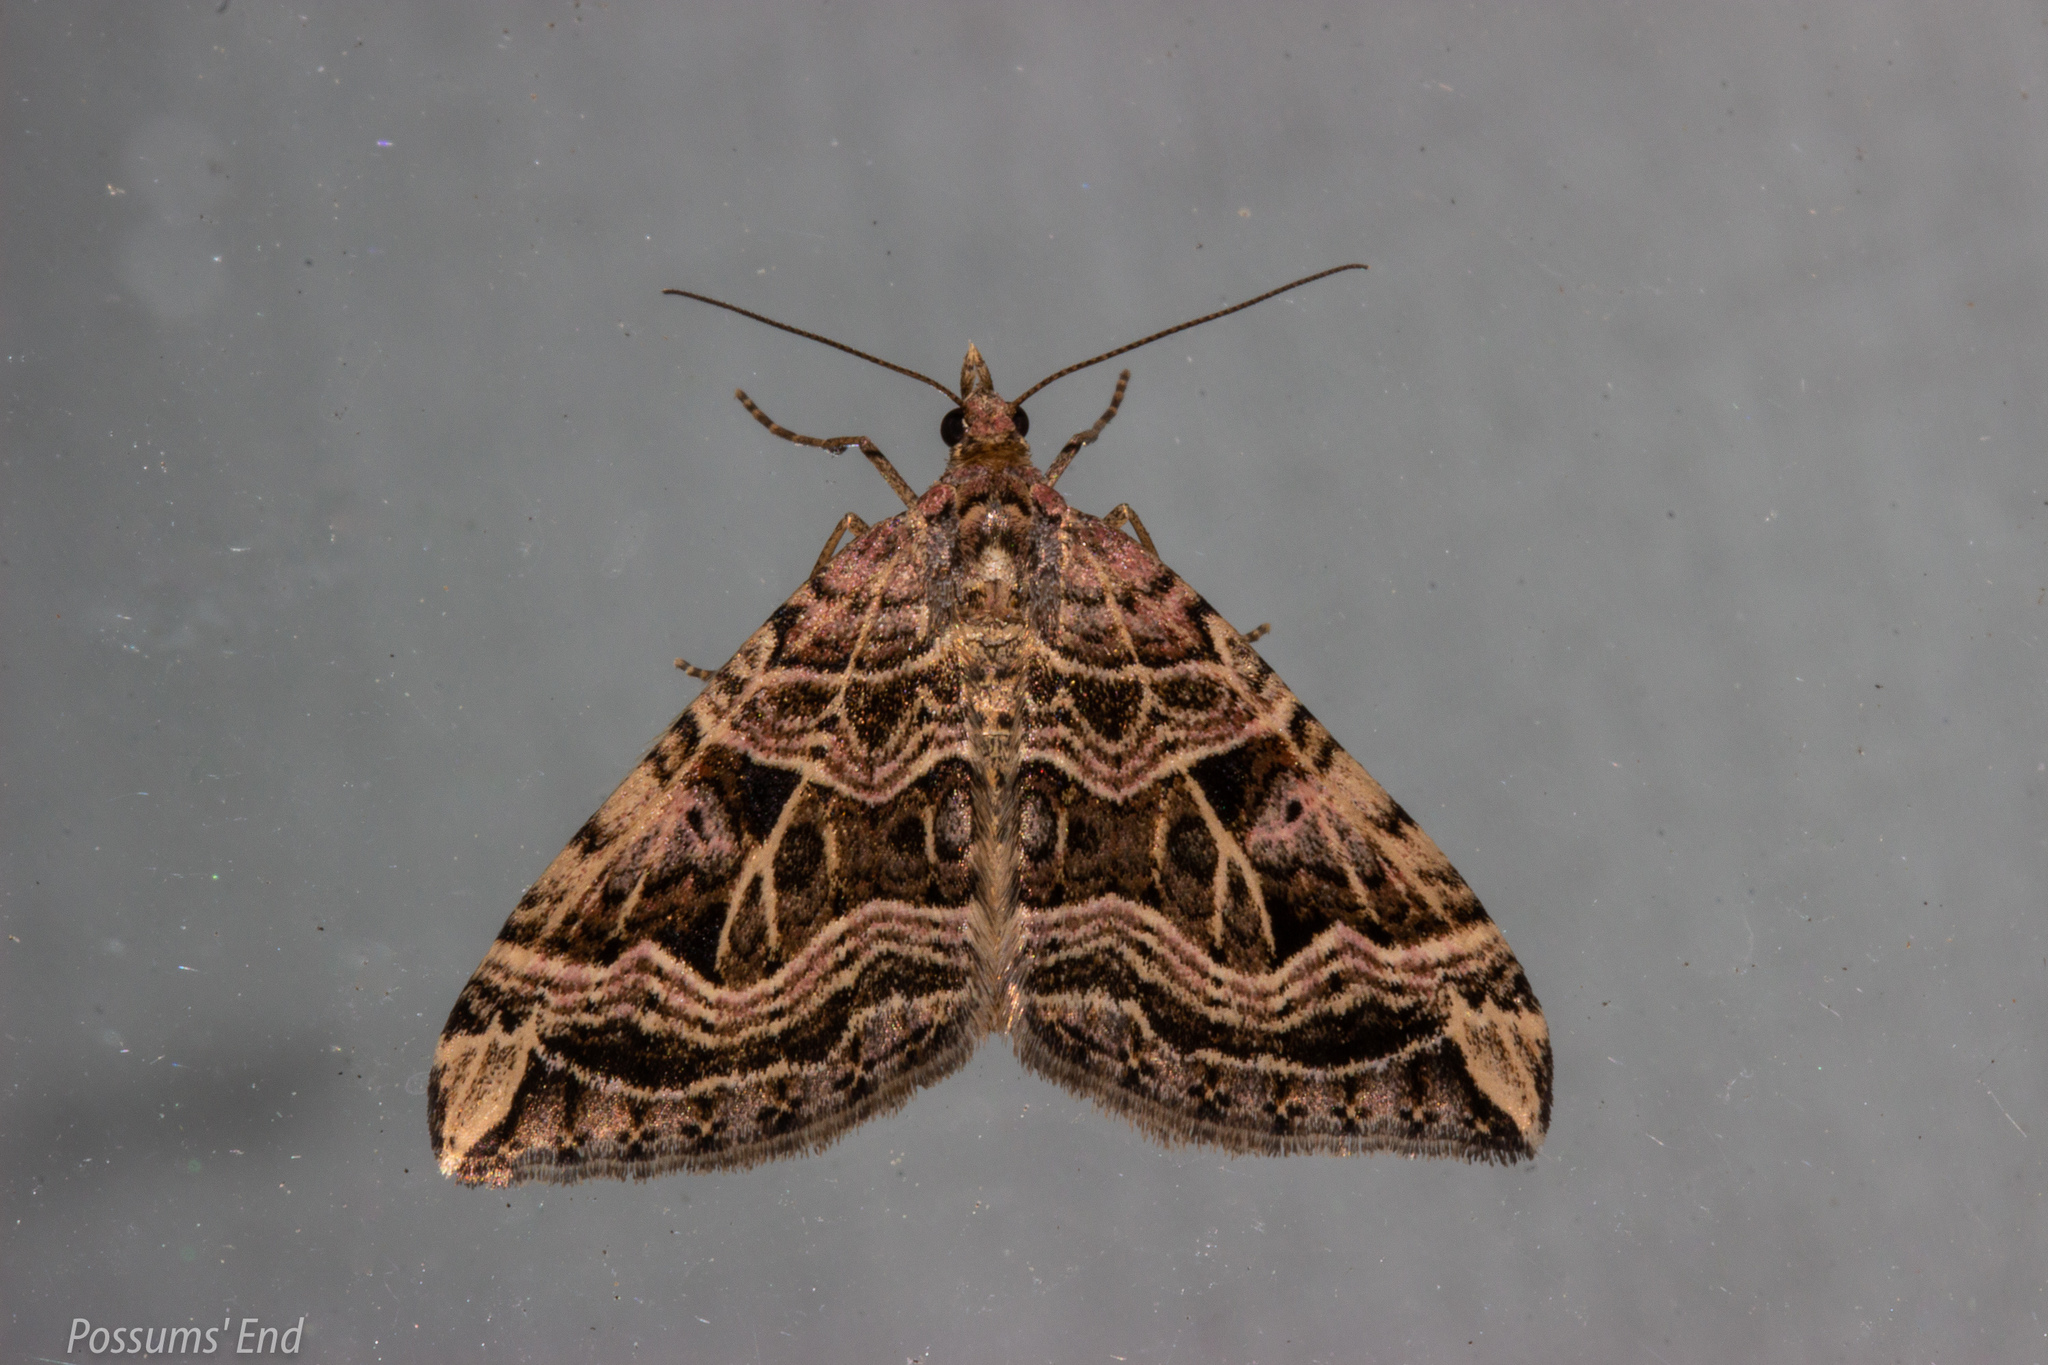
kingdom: Animalia
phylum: Arthropoda
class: Insecta
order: Lepidoptera
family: Geometridae
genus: Xanthorhoe
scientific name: Xanthorhoe semifissata
